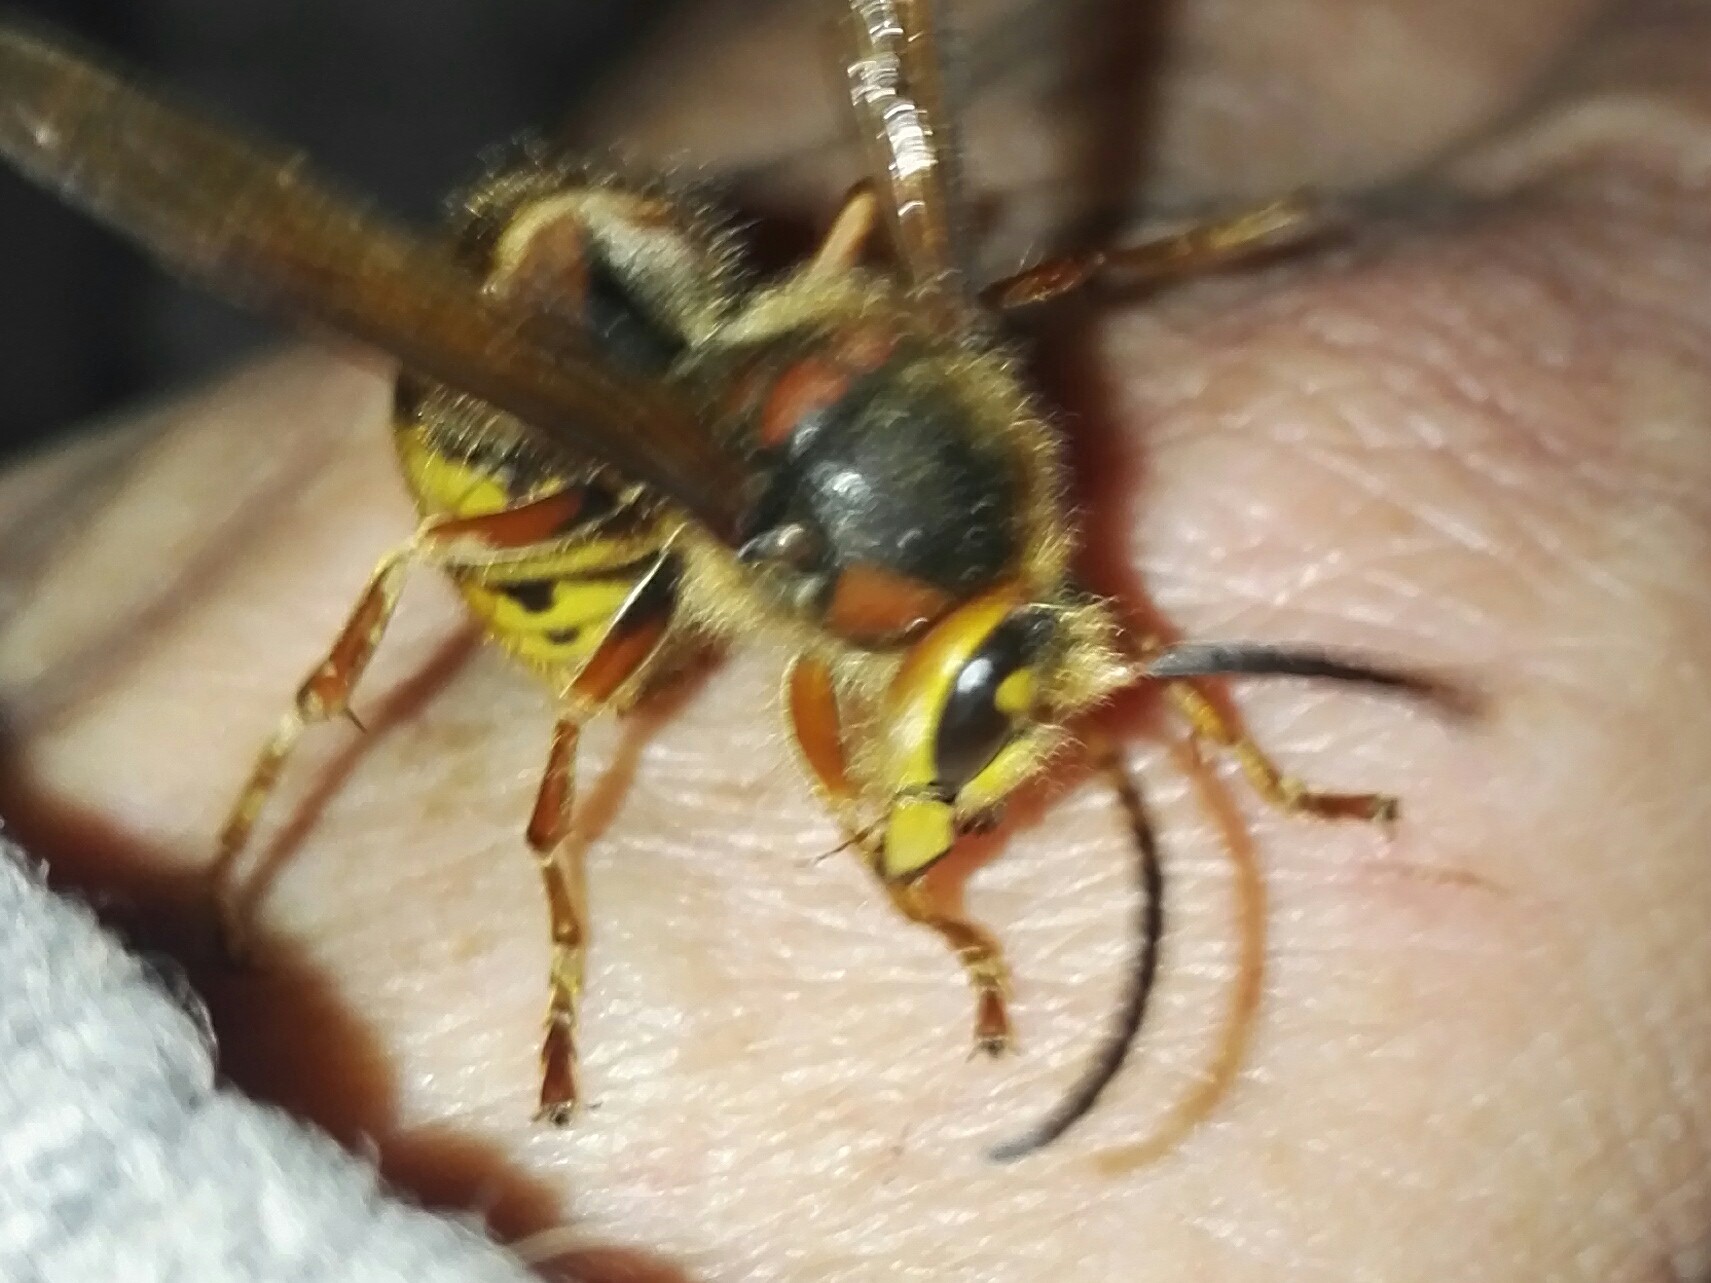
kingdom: Animalia
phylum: Arthropoda
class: Insecta
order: Hymenoptera
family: Vespidae
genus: Vespa
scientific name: Vespa crabro
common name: Hornet
